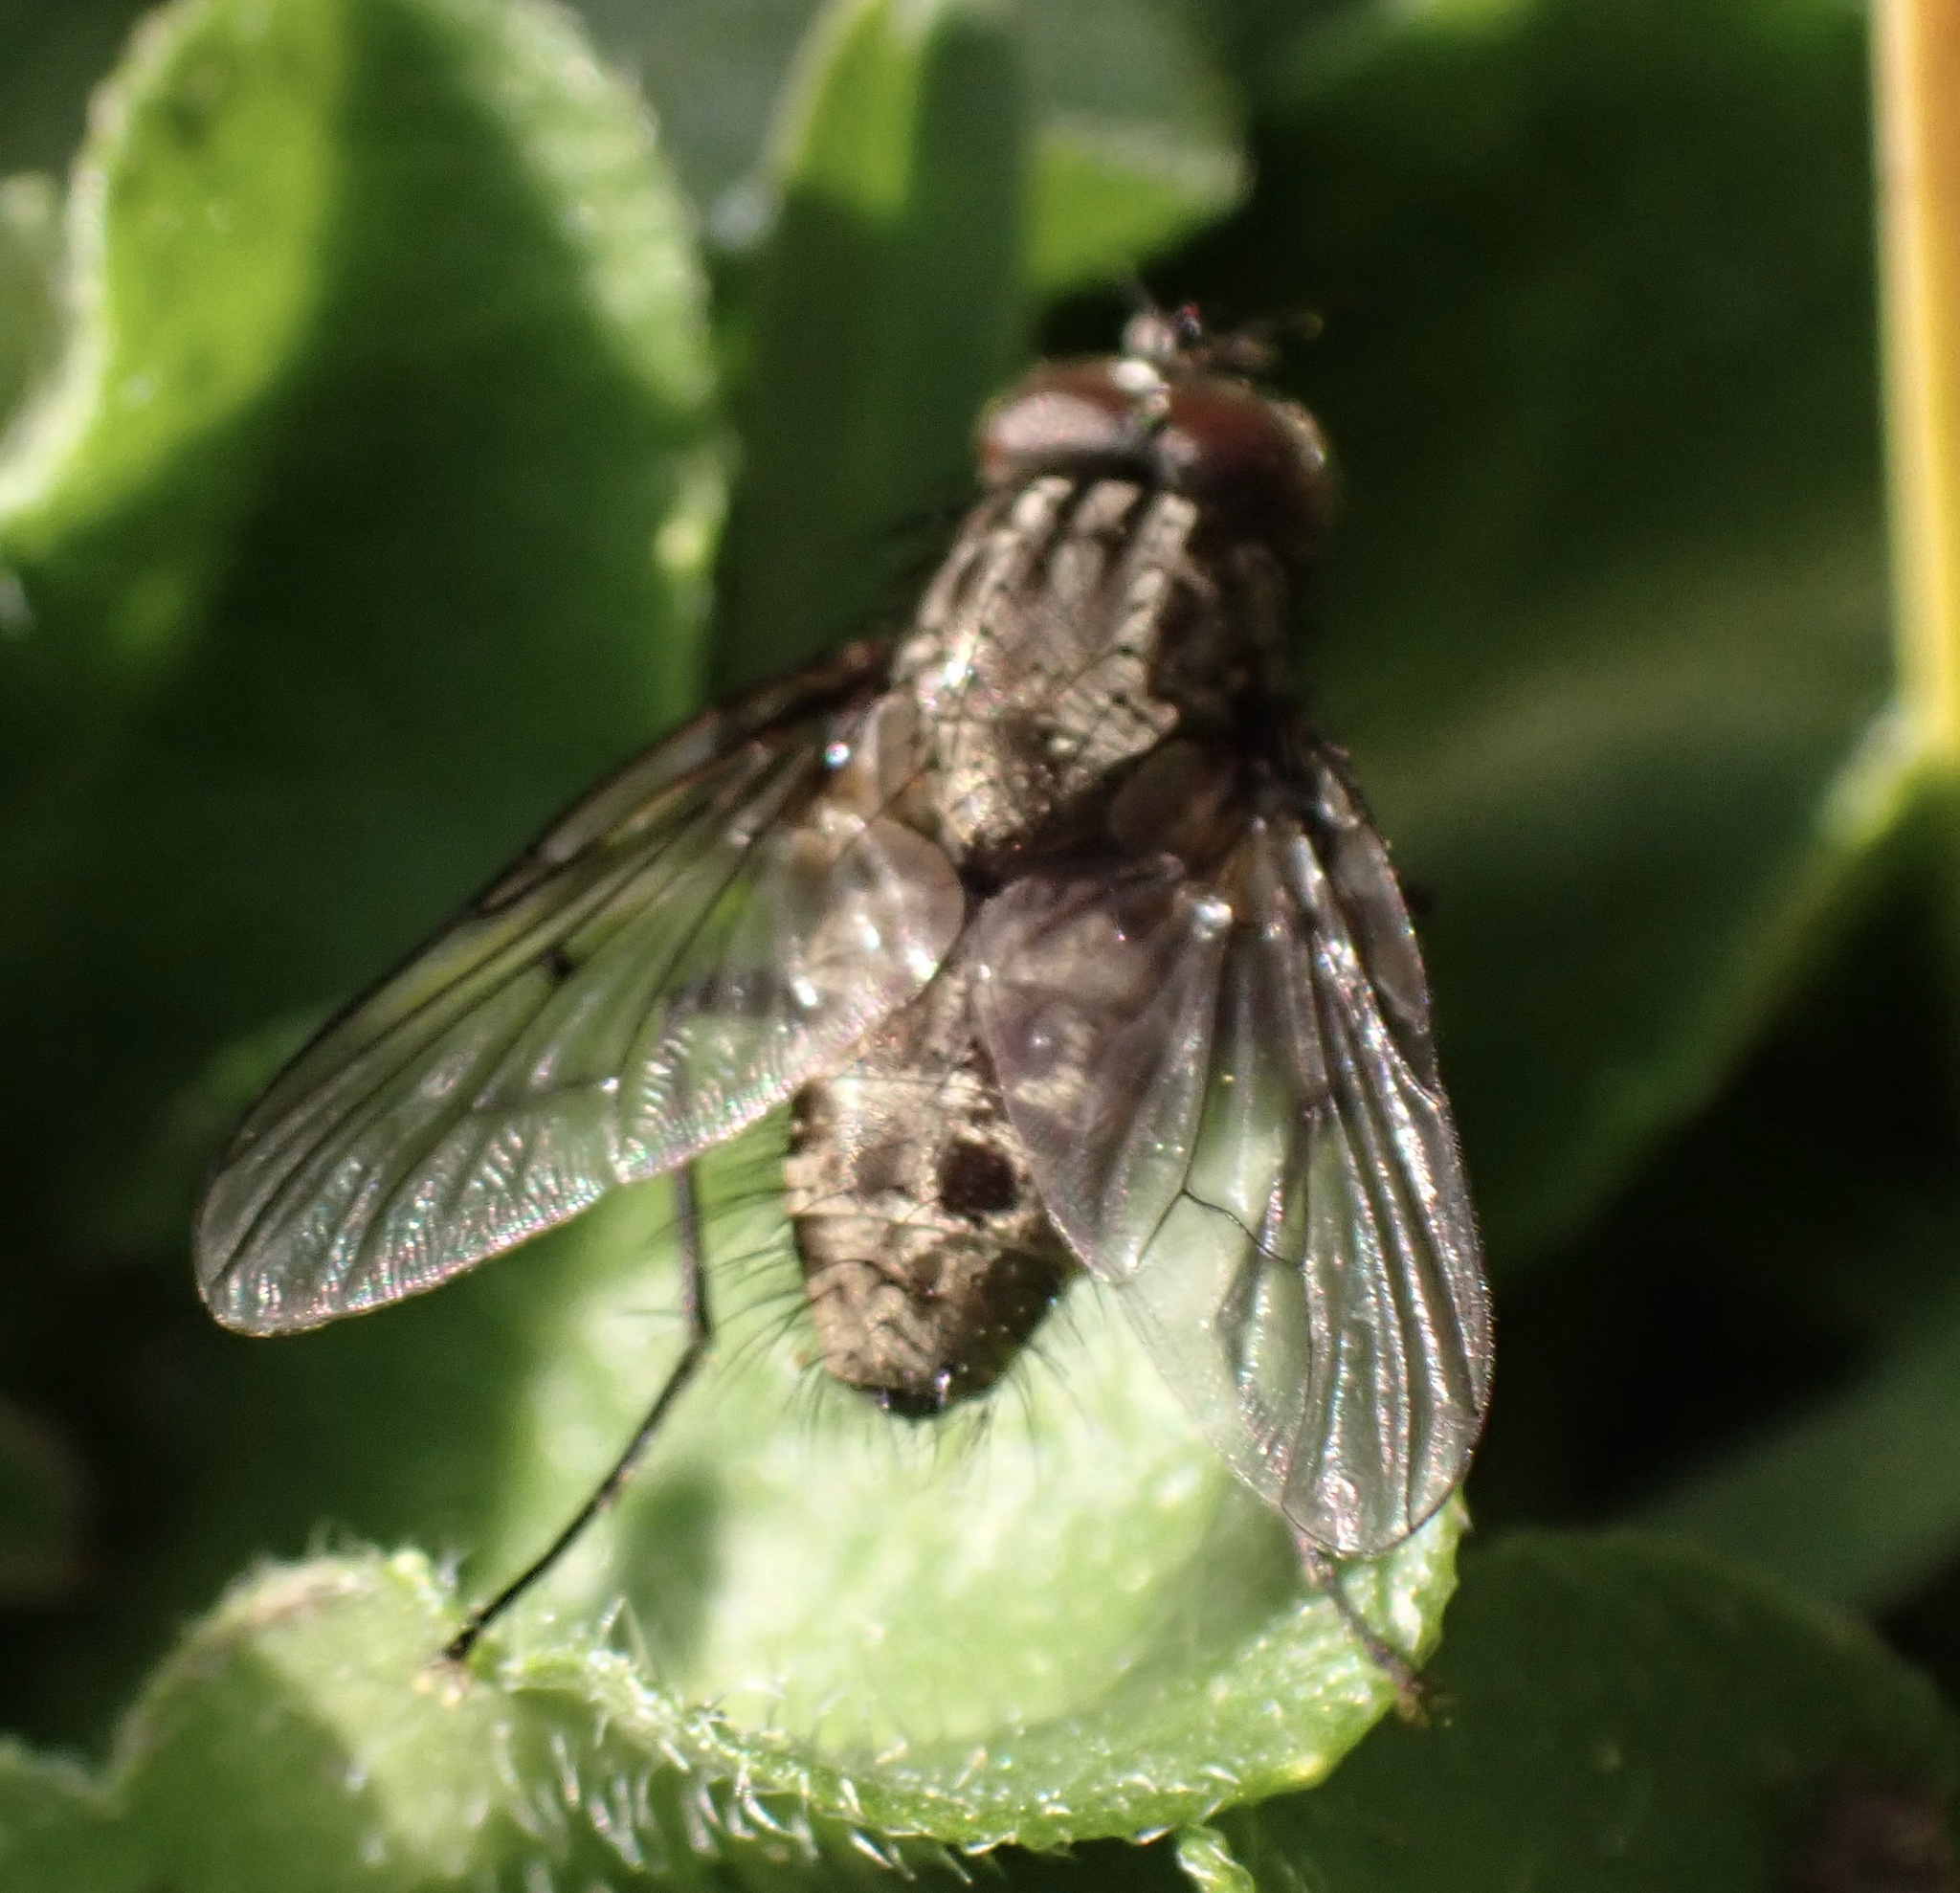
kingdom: Animalia
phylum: Arthropoda
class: Insecta
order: Diptera
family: Muscidae
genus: Helina
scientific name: Helina evecta
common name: Muscid fly
